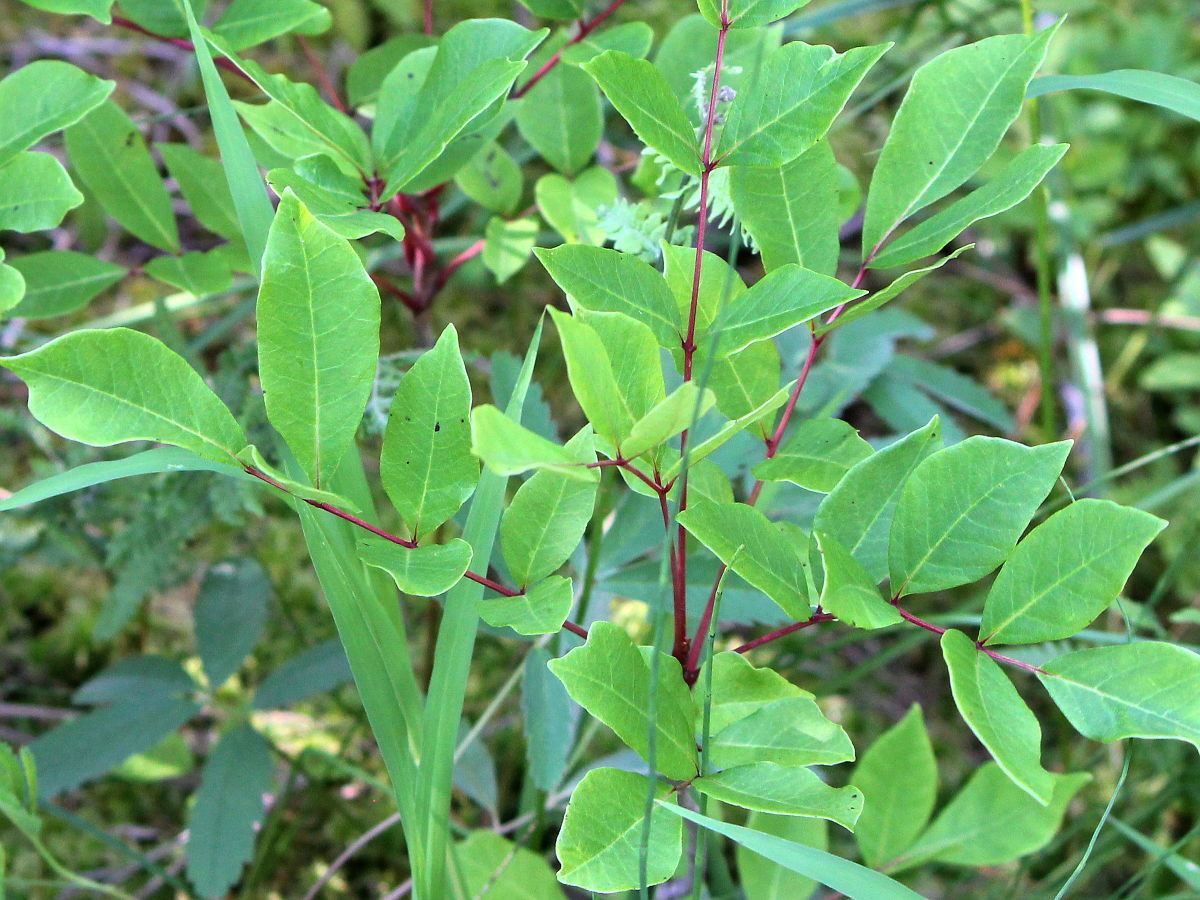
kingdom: Plantae
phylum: Tracheophyta
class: Magnoliopsida
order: Sapindales
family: Anacardiaceae
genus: Toxicodendron
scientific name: Toxicodendron vernix
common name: Poison sumac
